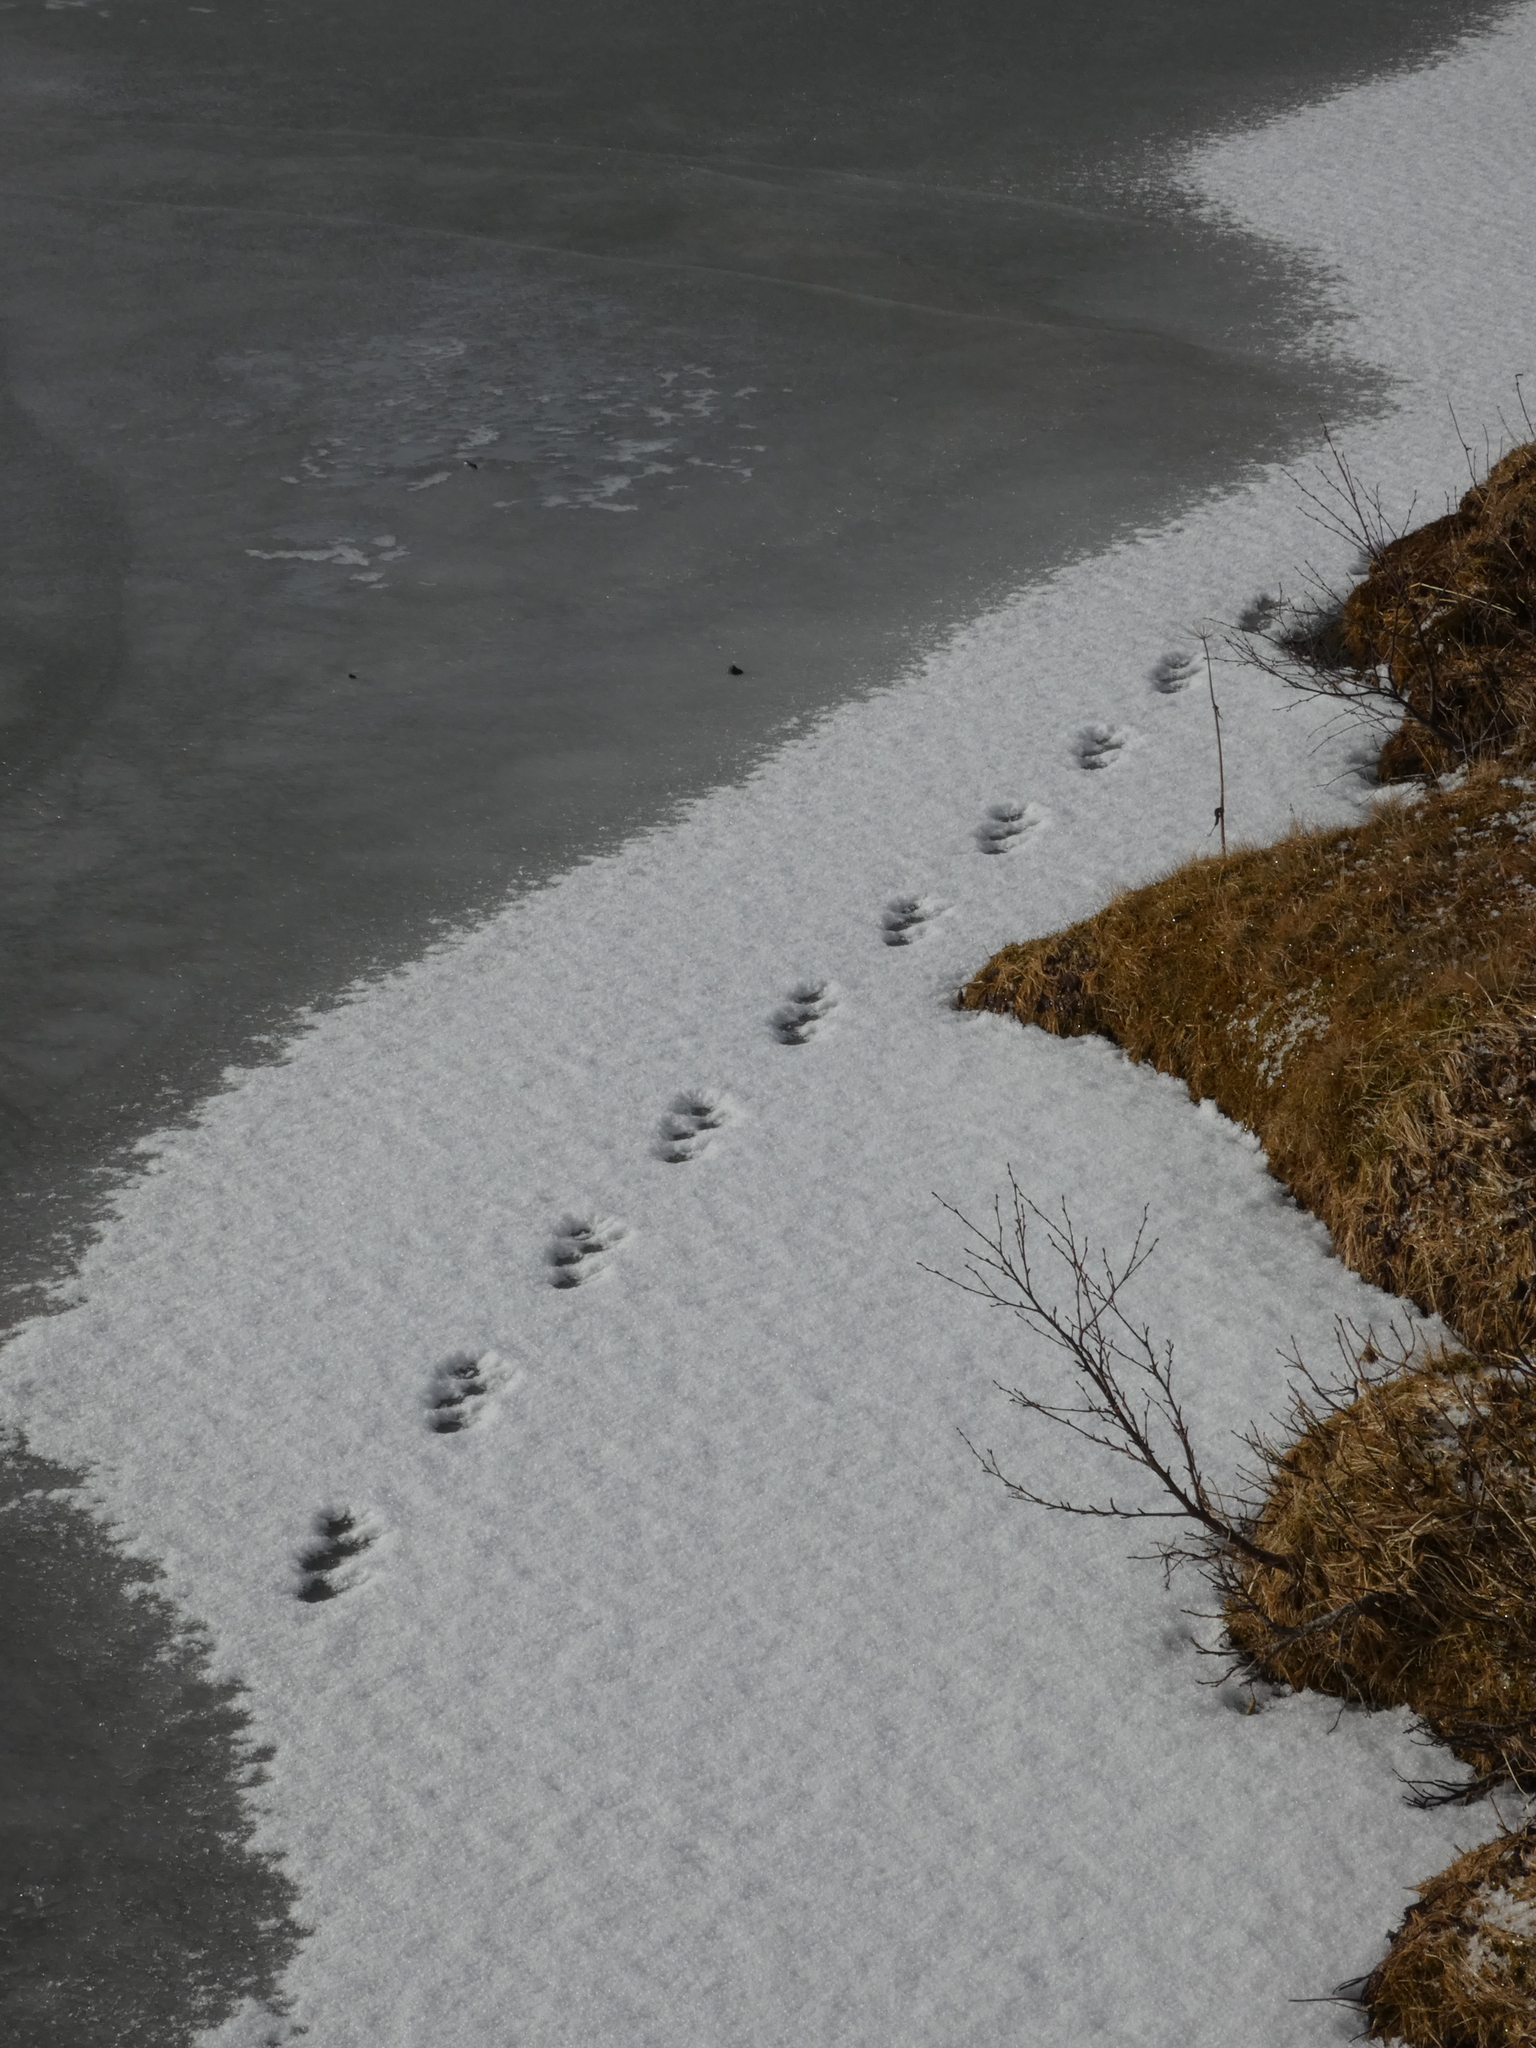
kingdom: Animalia
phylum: Chordata
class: Mammalia
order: Carnivora
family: Mustelidae
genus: Mustela
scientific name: Mustela
